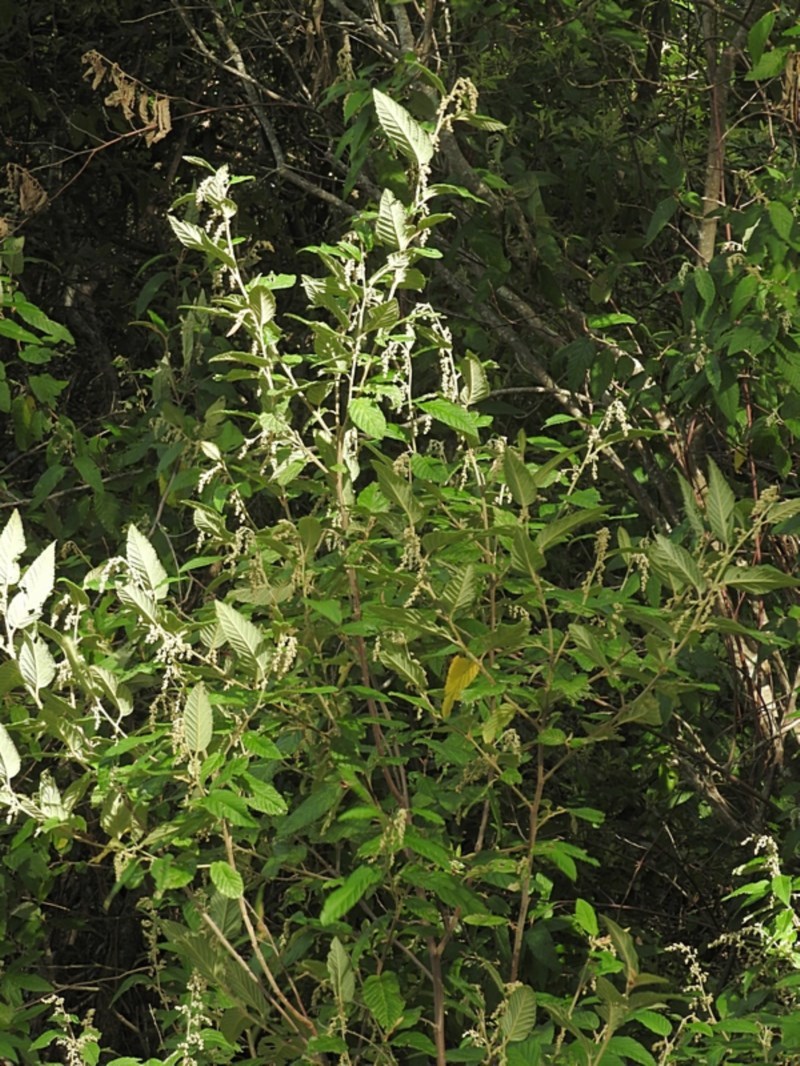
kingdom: Plantae
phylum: Tracheophyta
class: Magnoliopsida
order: Rosales
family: Rhamnaceae
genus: Pomaderris
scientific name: Pomaderris aspera
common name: Hazel pomaderris
